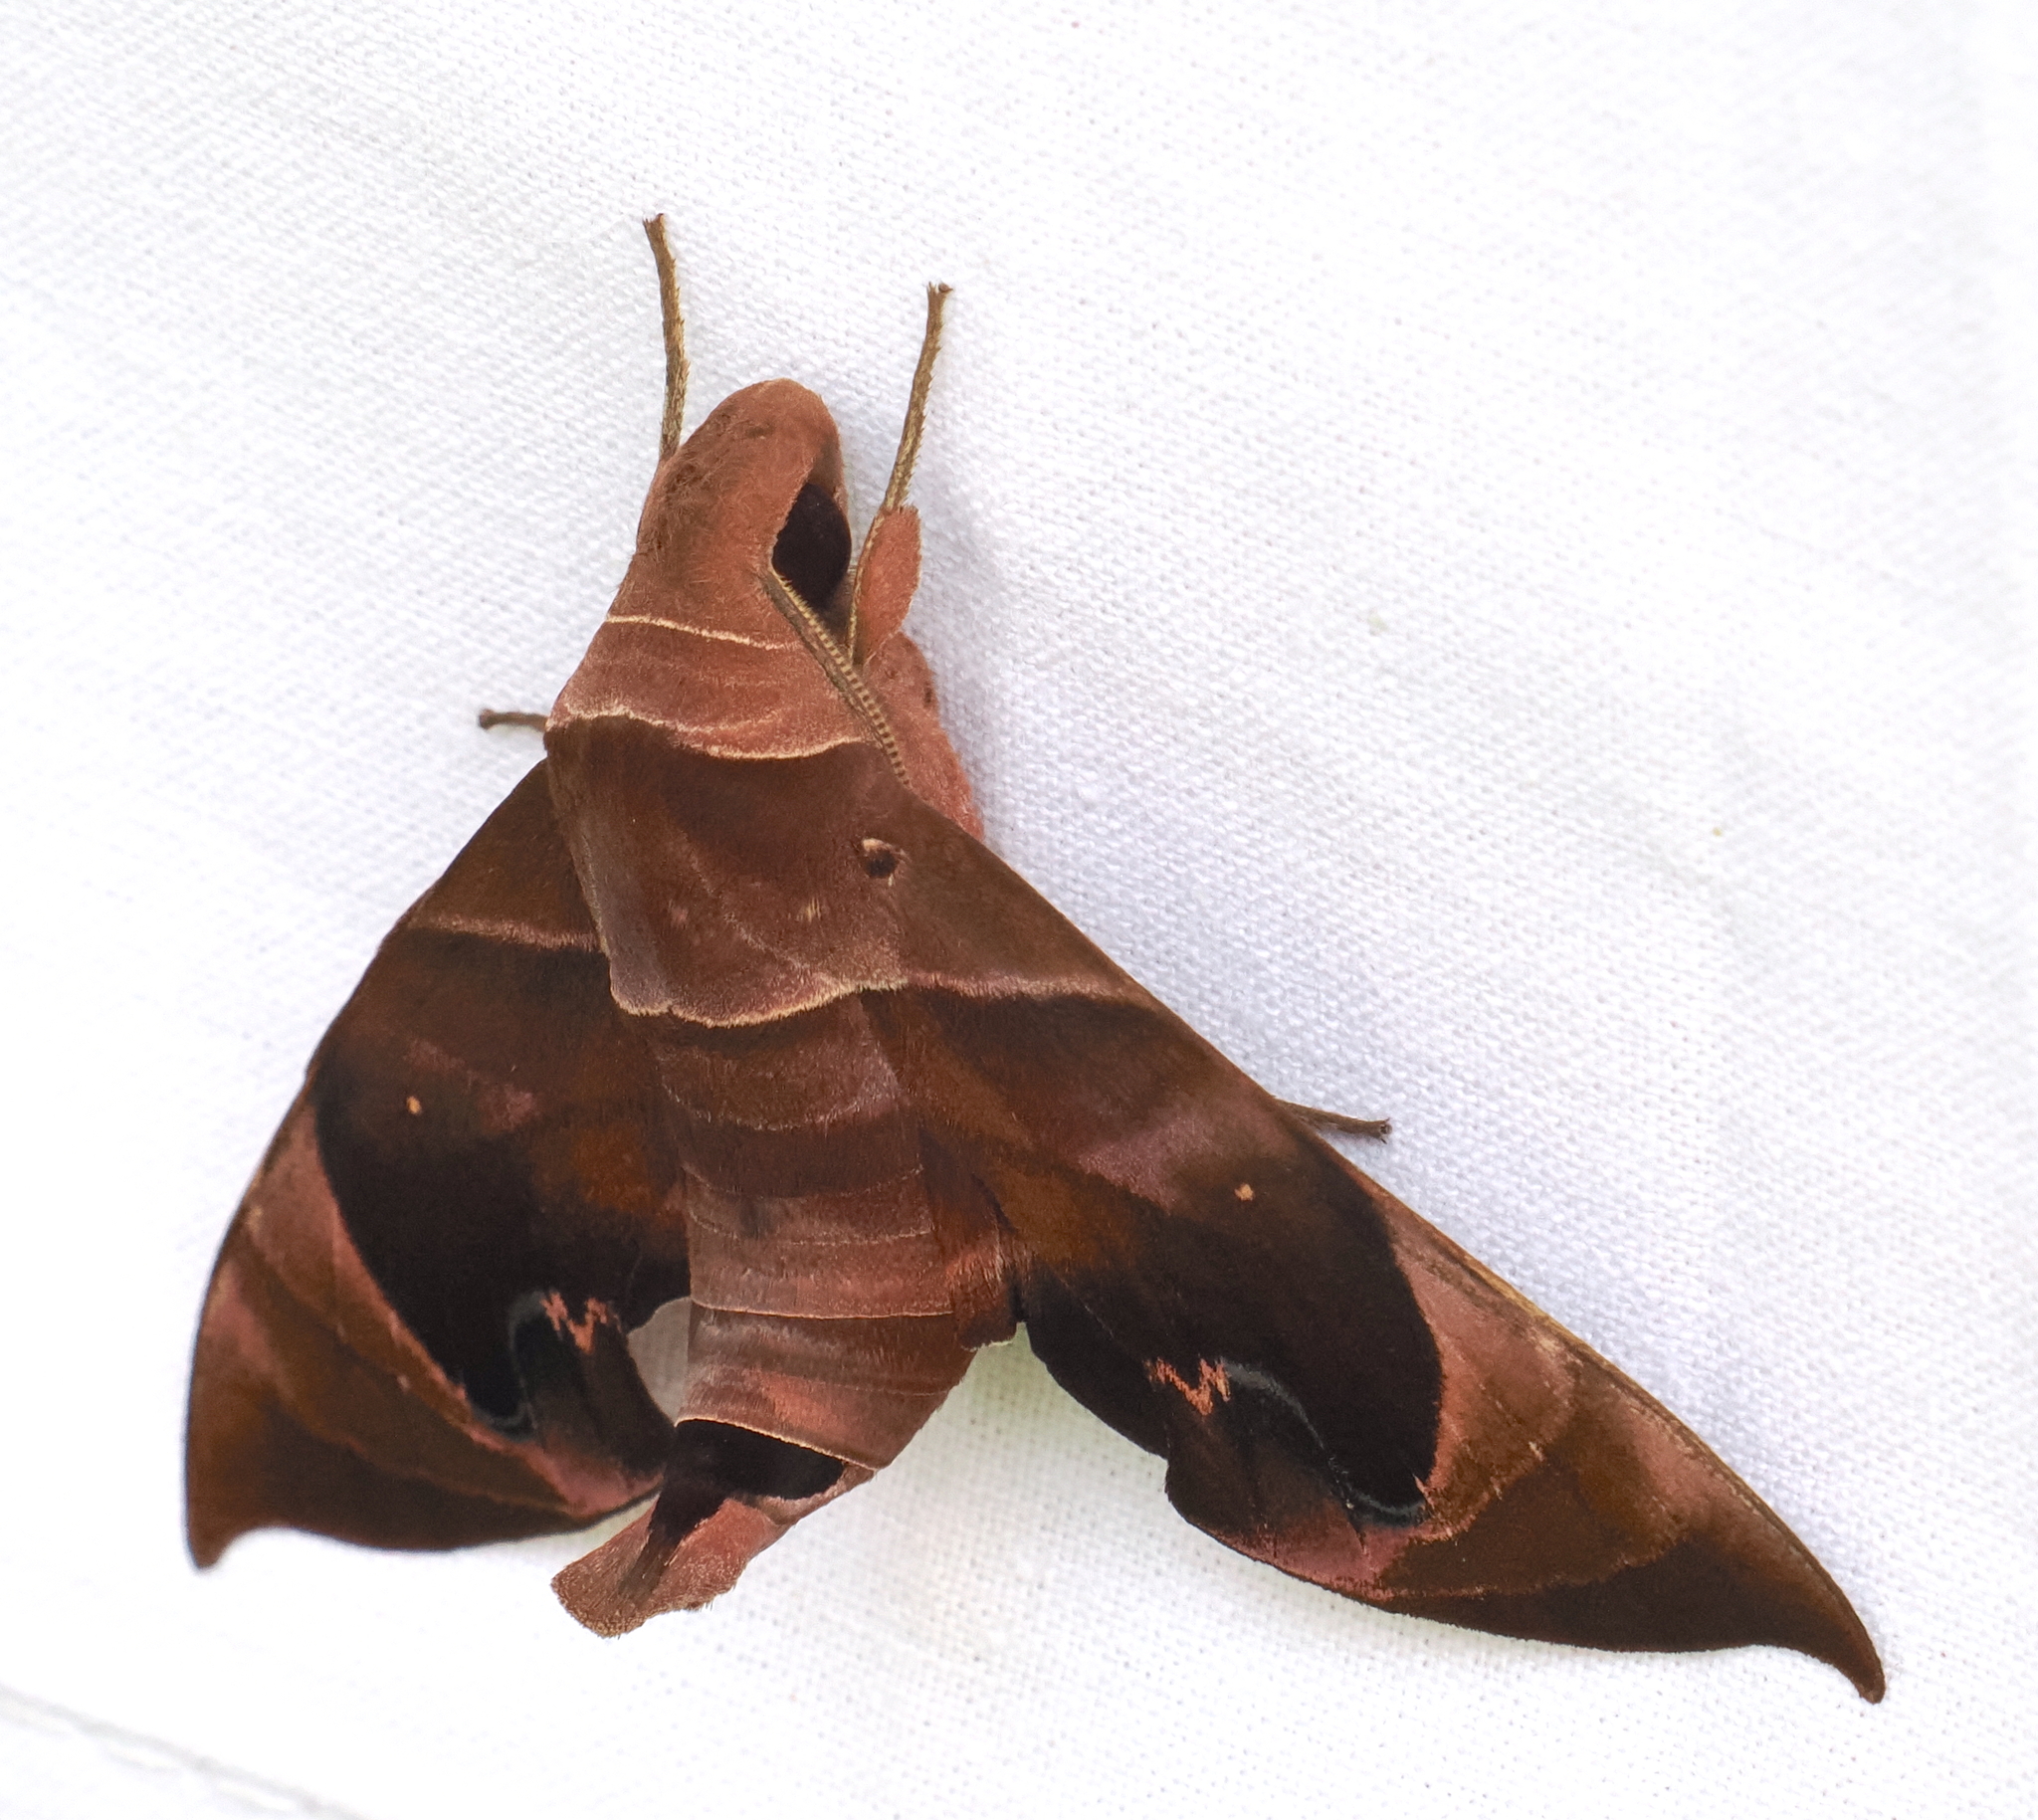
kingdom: Animalia
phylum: Arthropoda
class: Insecta
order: Lepidoptera
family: Sphingidae
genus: Eurypteryx
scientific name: Eurypteryx bhaga
